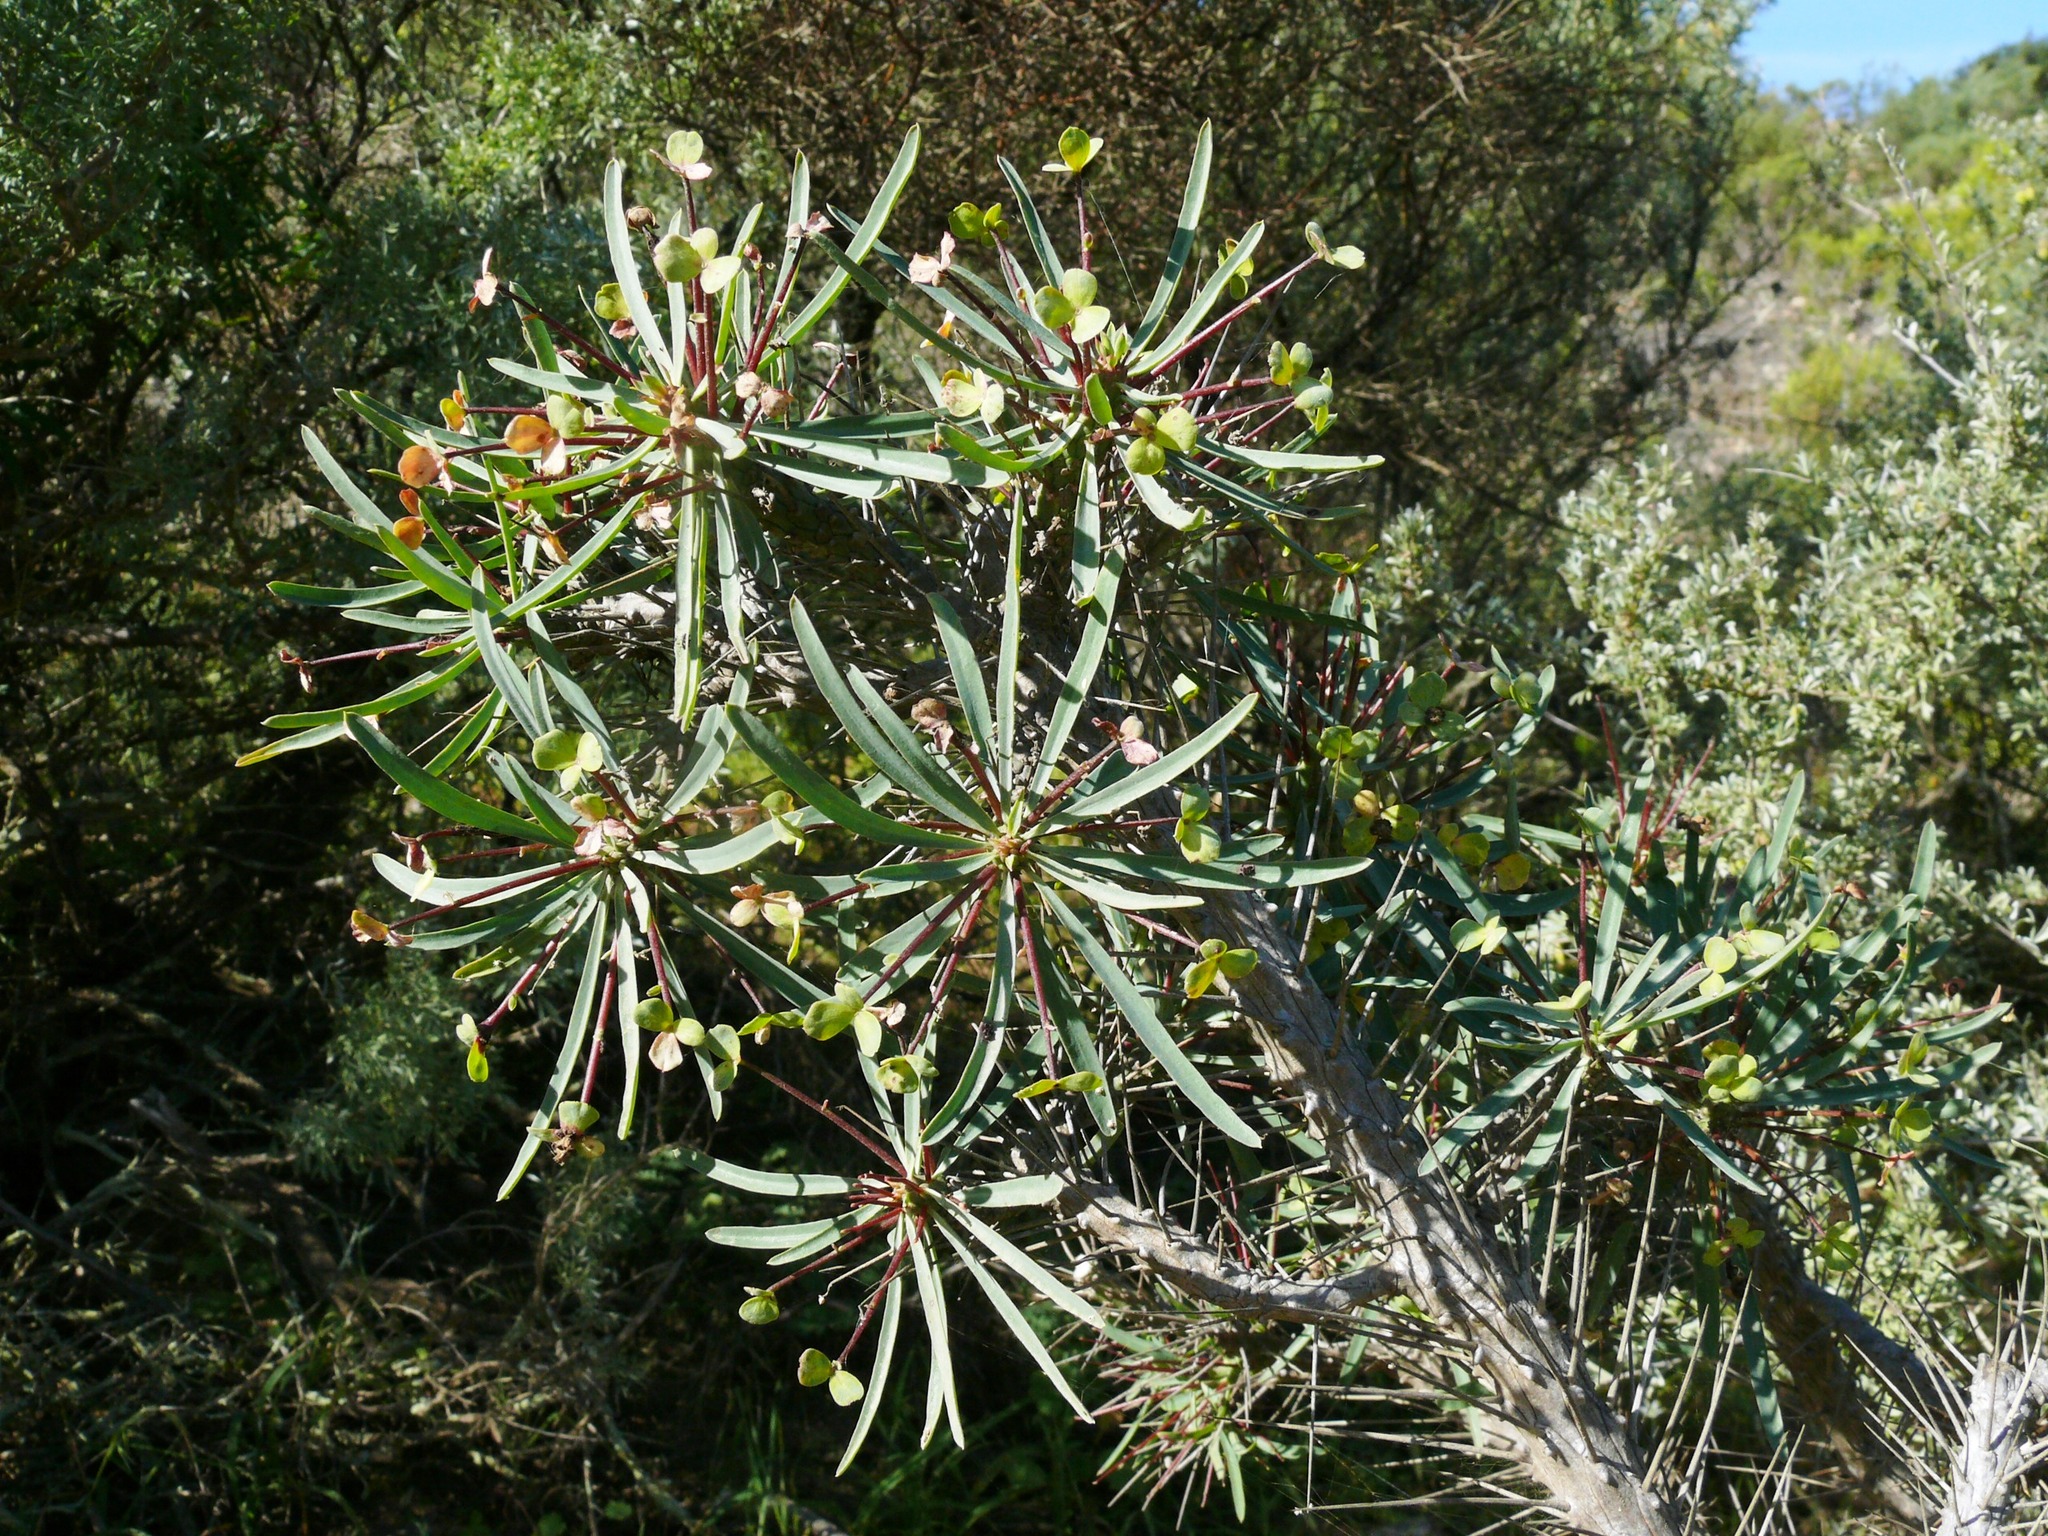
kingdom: Plantae
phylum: Tracheophyta
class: Magnoliopsida
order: Malpighiales
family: Euphorbiaceae
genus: Euphorbia
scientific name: Euphorbia loricata
